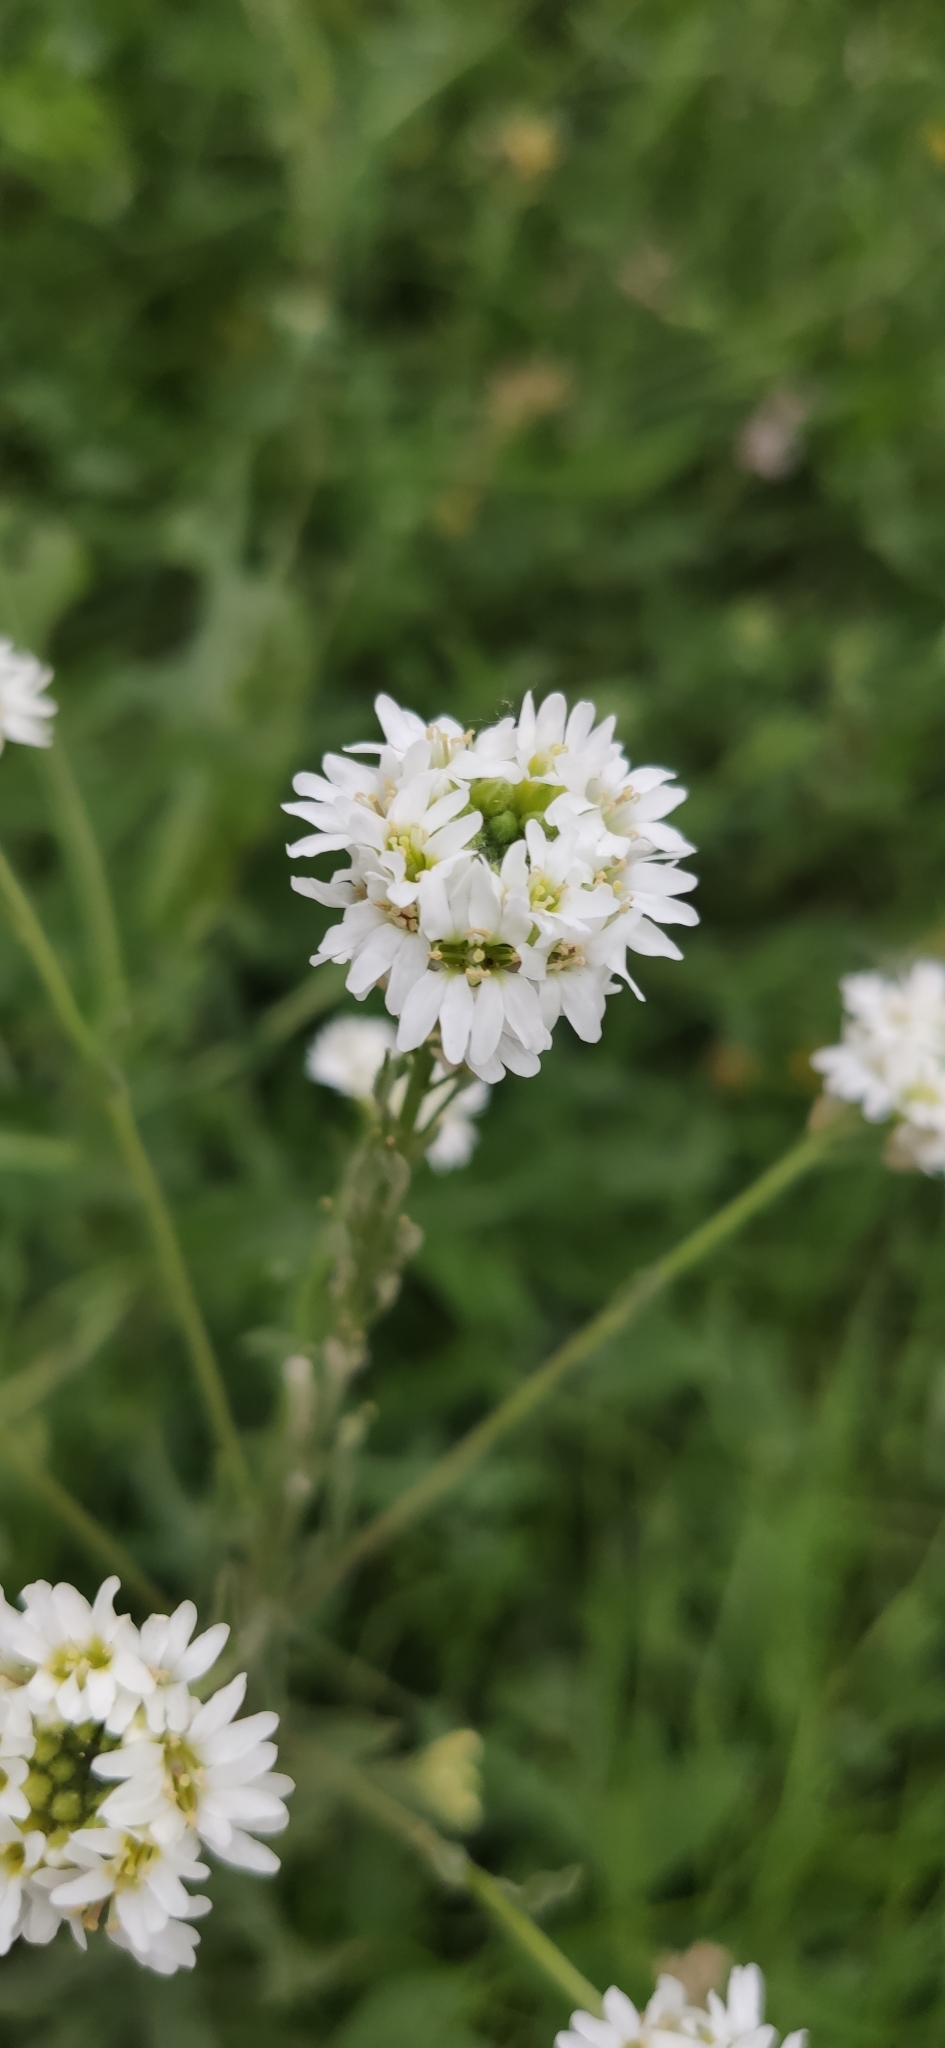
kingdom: Plantae
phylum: Tracheophyta
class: Magnoliopsida
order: Brassicales
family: Brassicaceae
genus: Berteroa
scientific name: Berteroa incana
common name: Hoary alison
